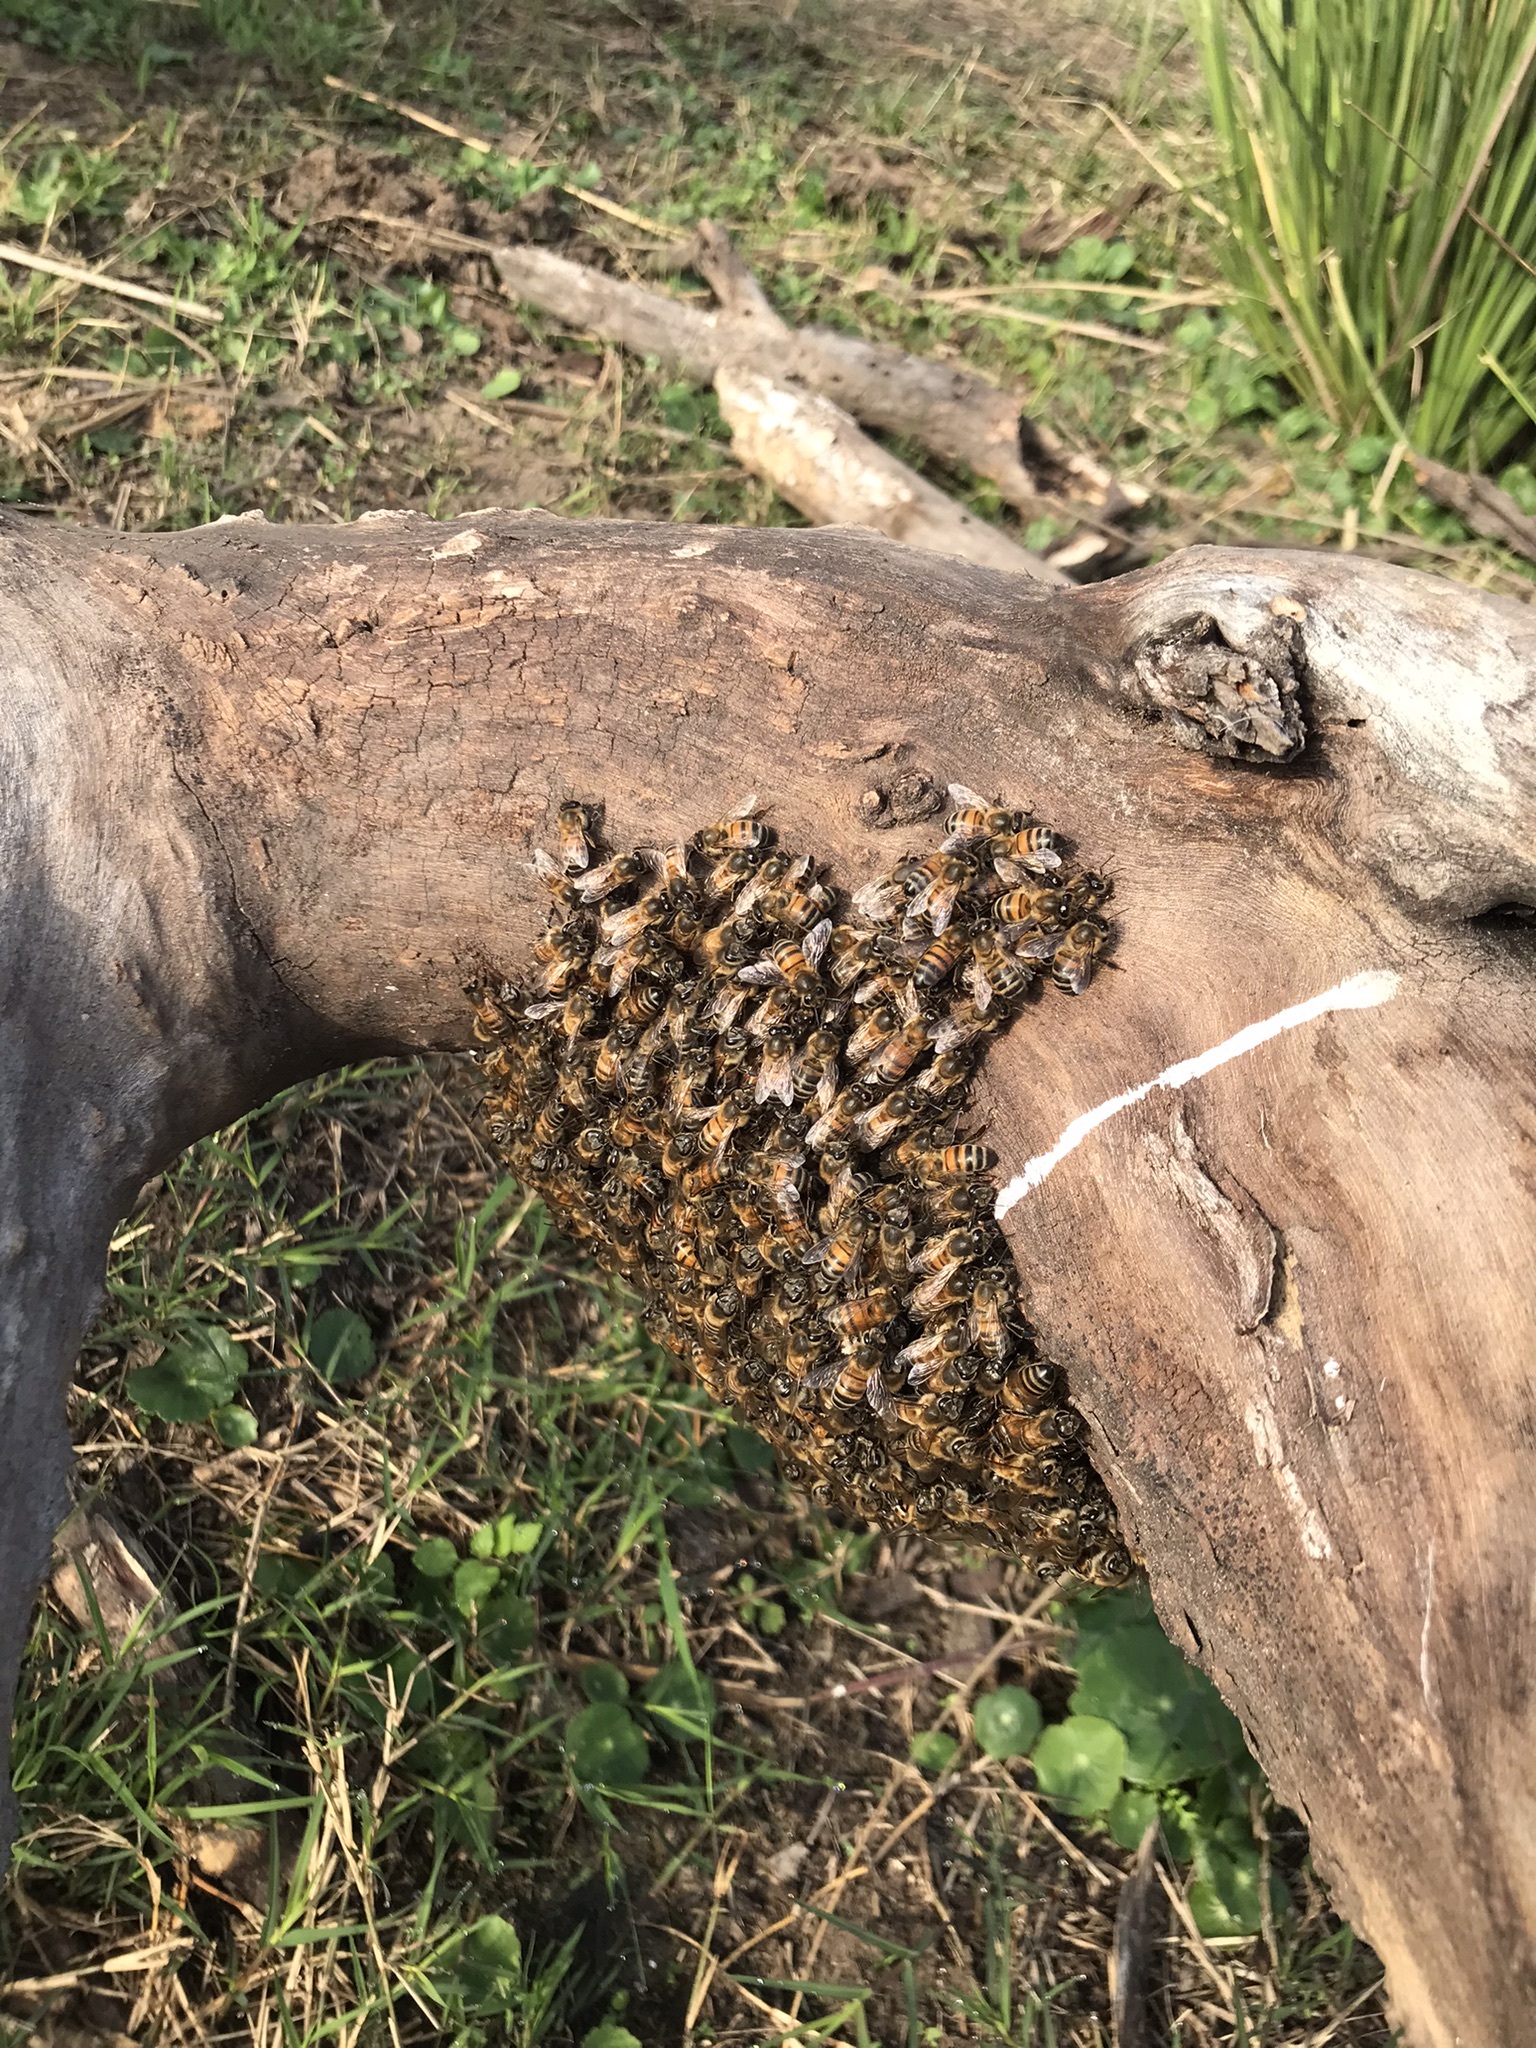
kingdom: Animalia
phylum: Arthropoda
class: Insecta
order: Hymenoptera
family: Apidae
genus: Apis
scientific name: Apis mellifera
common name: Honey bee
